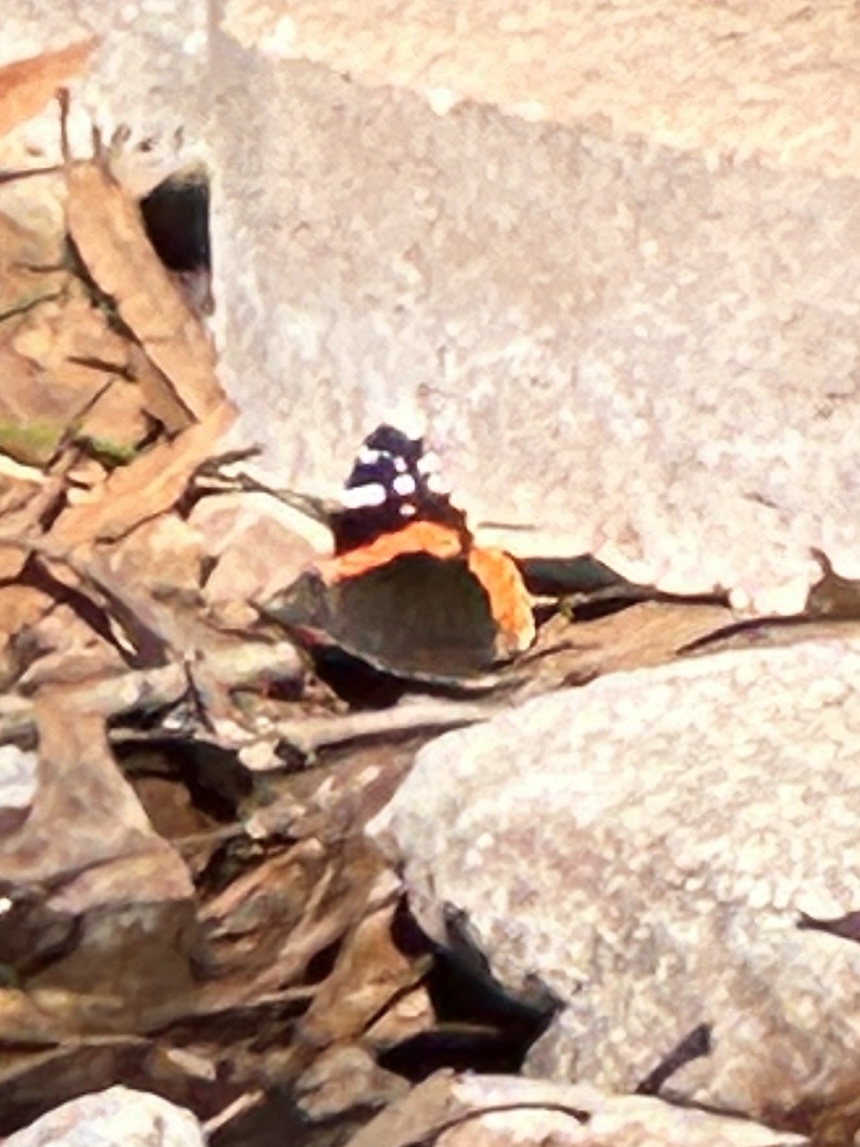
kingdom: Animalia
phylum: Arthropoda
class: Insecta
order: Lepidoptera
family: Nymphalidae
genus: Vanessa
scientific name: Vanessa atalanta
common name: Red admiral
